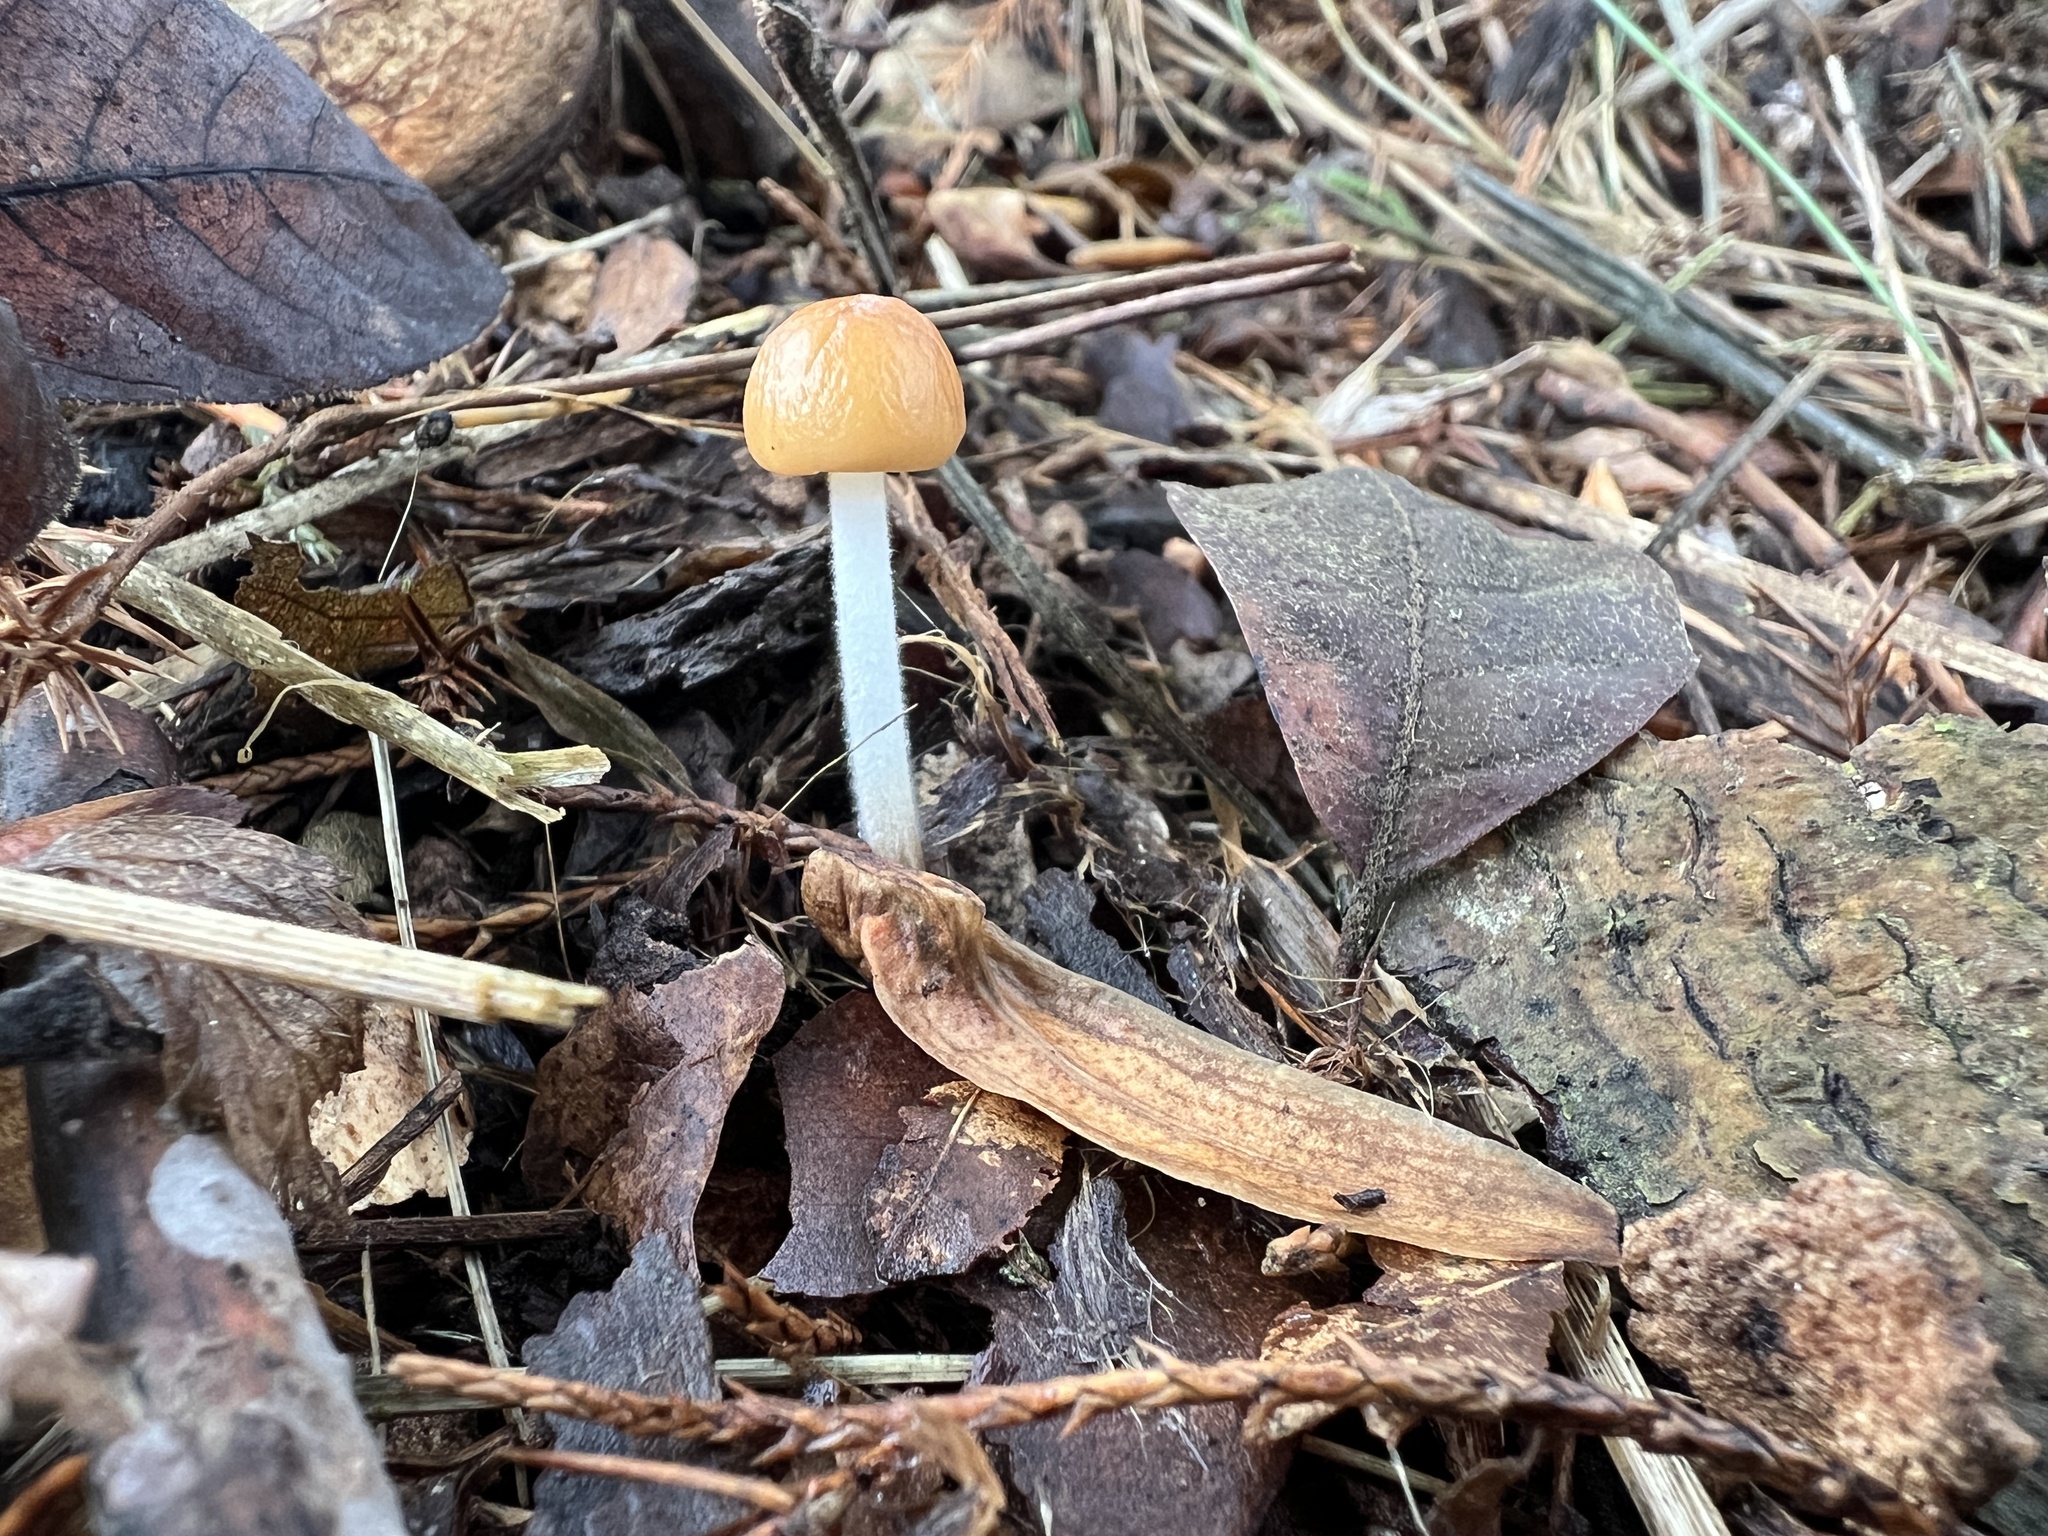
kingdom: Fungi
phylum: Basidiomycota
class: Agaricomycetes
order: Agaricales
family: Physalacriaceae
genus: Rhizomarasmius
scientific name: Rhizomarasmius pyrrhocephalus
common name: Hairy long stem marasmius
